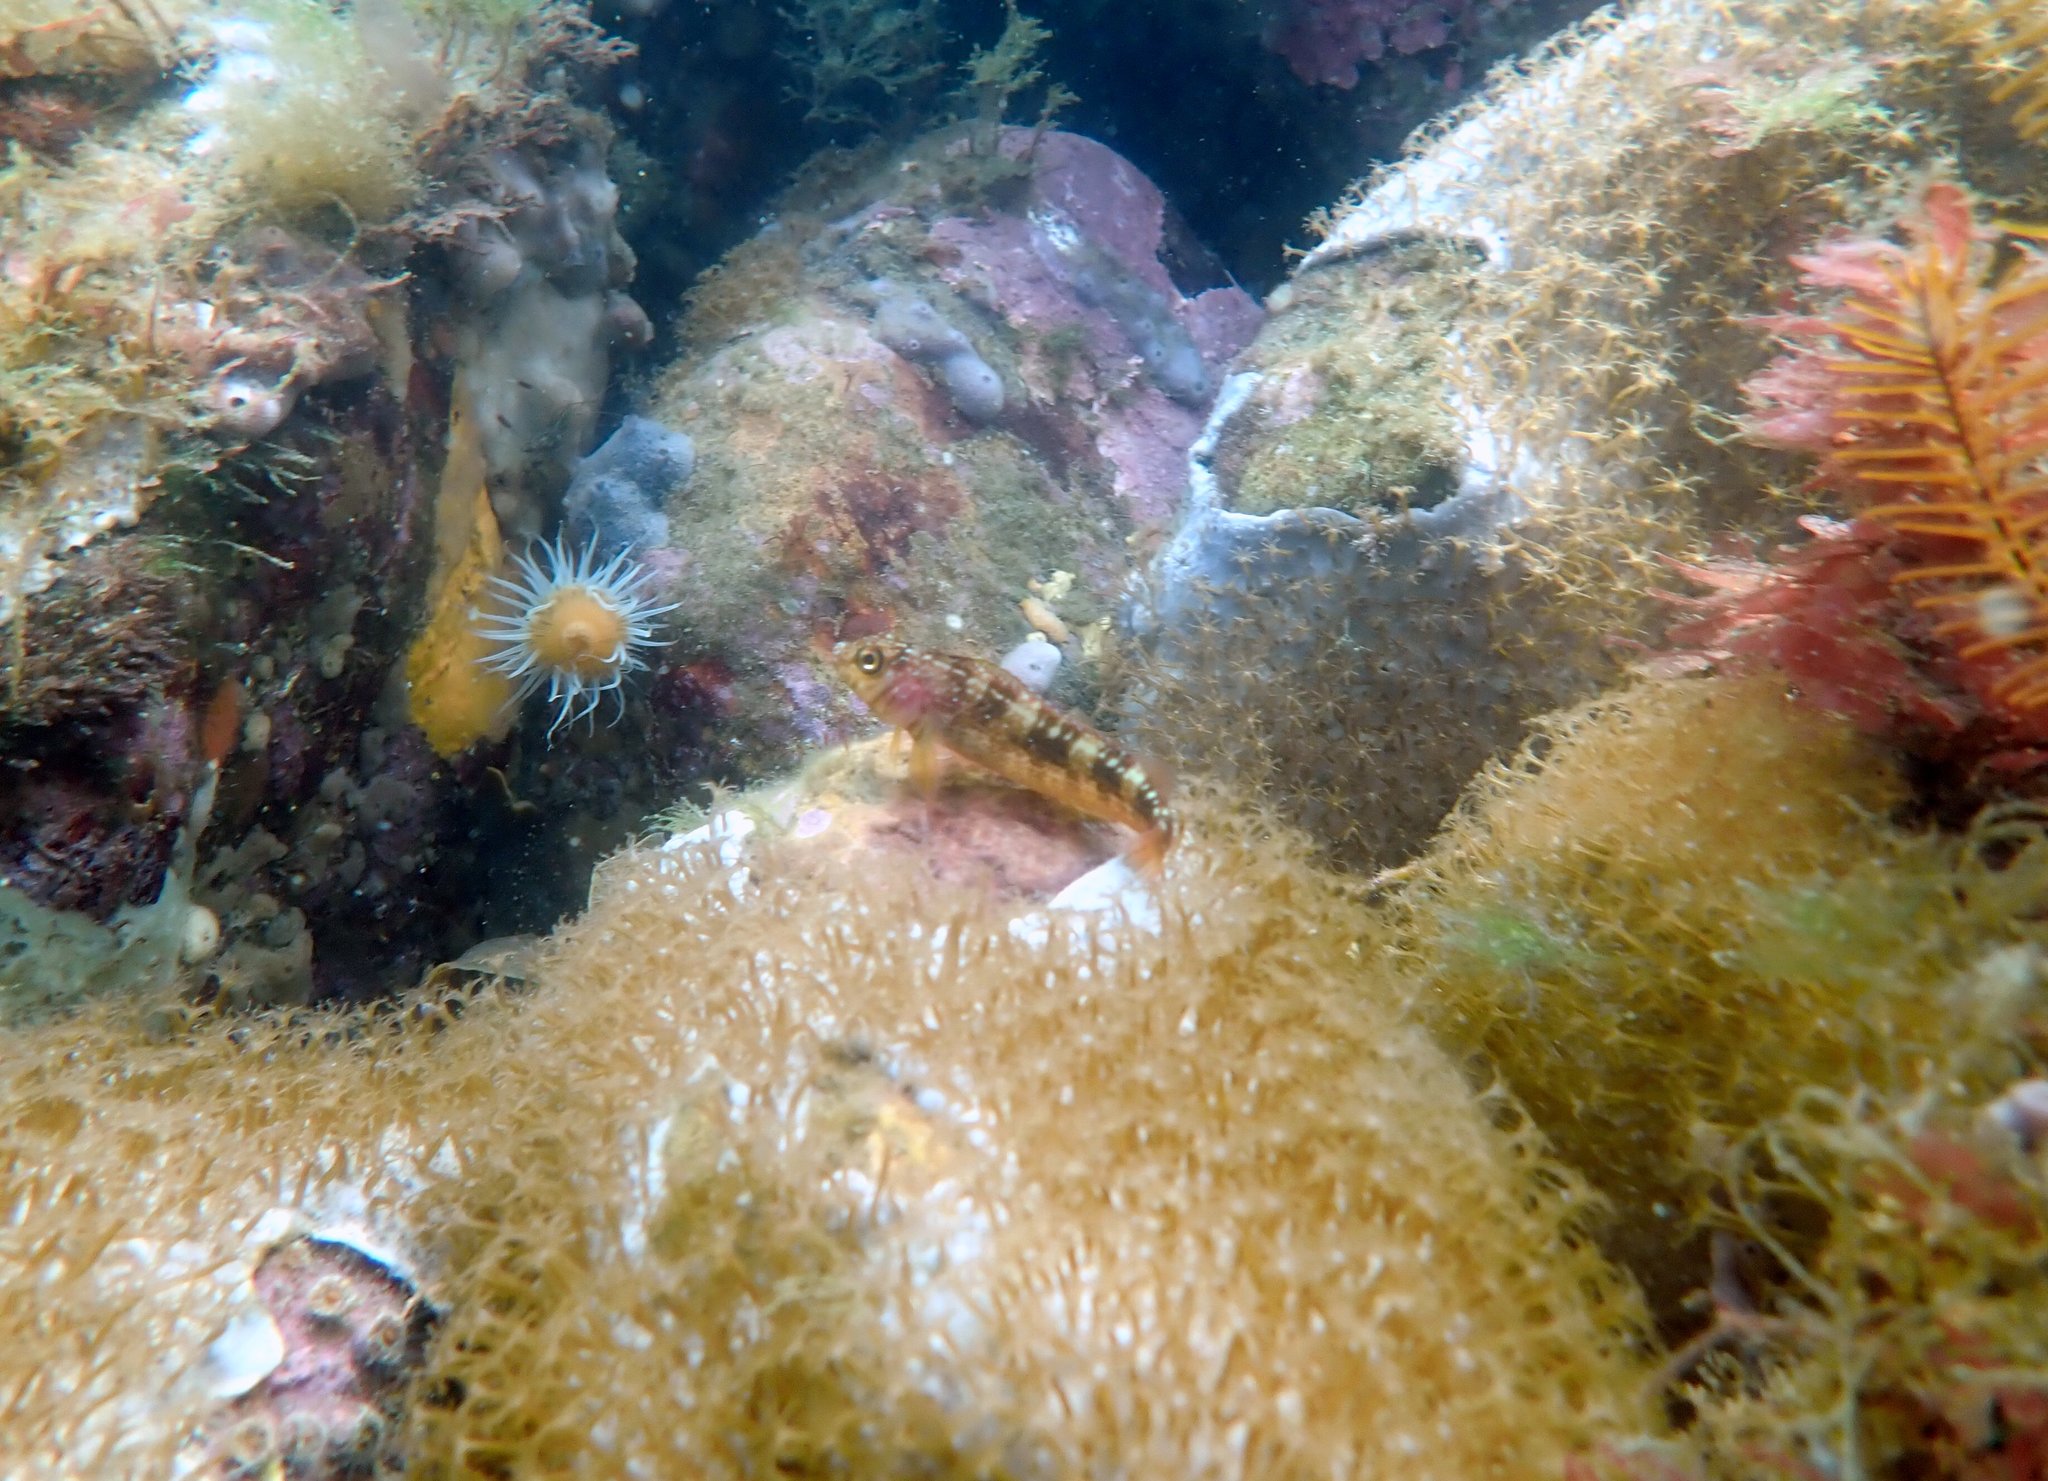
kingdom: Animalia
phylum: Chordata
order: Perciformes
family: Tripterygiidae
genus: Forsterygion
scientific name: Forsterygion varium
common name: Variable triplefin
